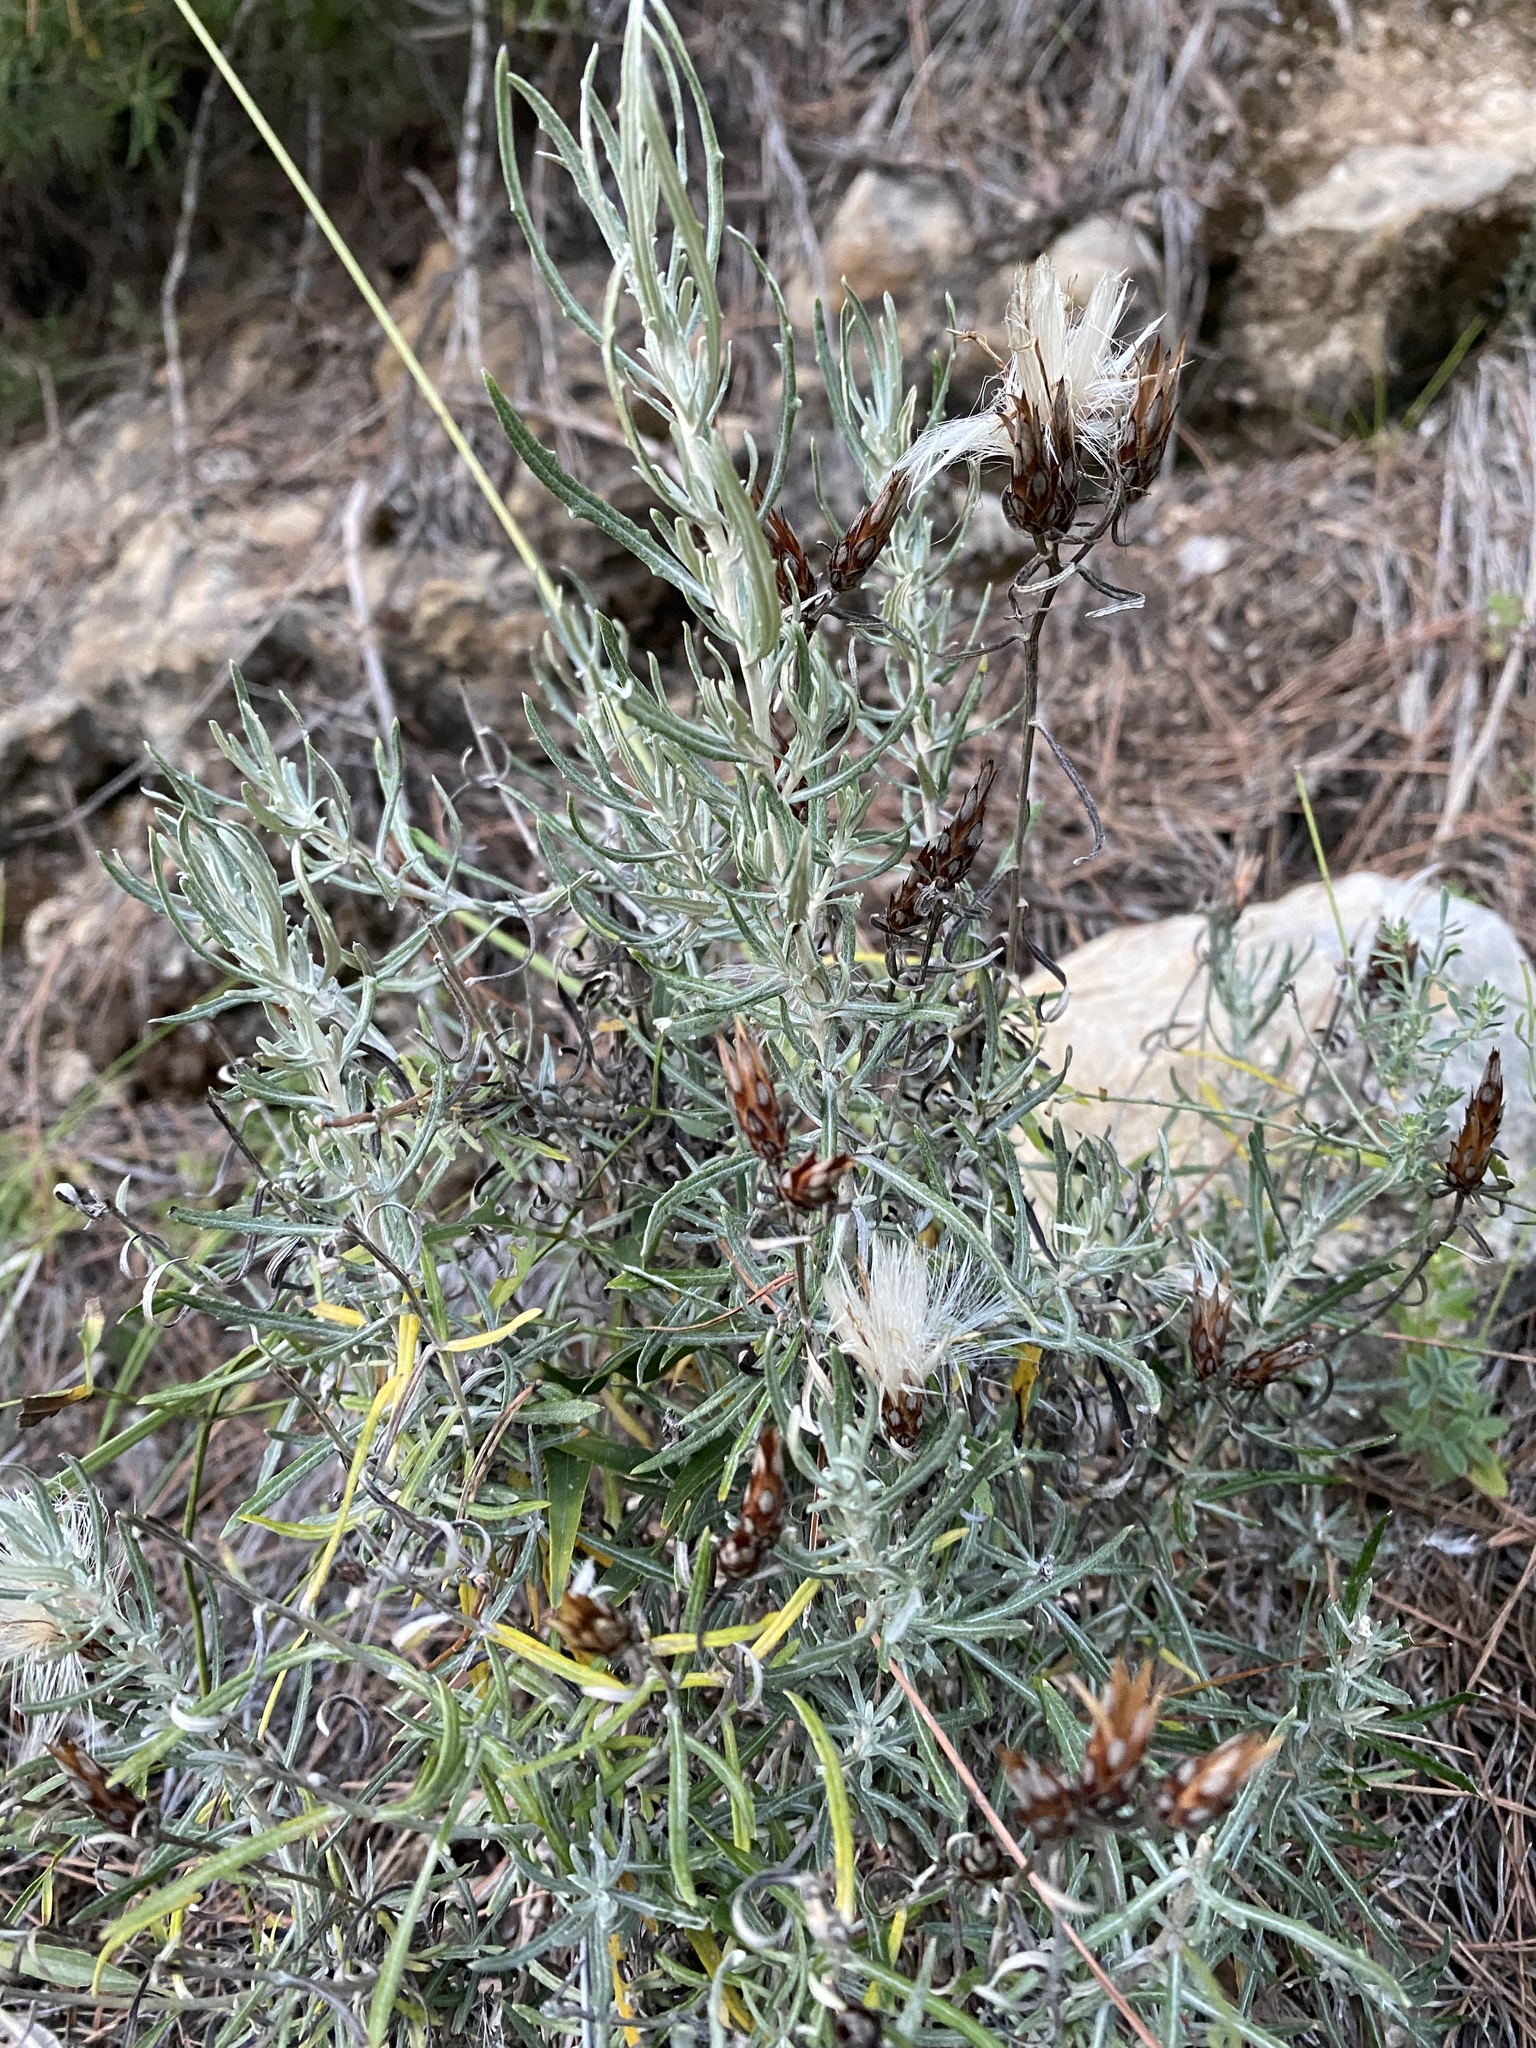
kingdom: Plantae
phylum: Tracheophyta
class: Magnoliopsida
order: Asterales
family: Asteraceae
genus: Staehelina
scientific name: Staehelina dubia
